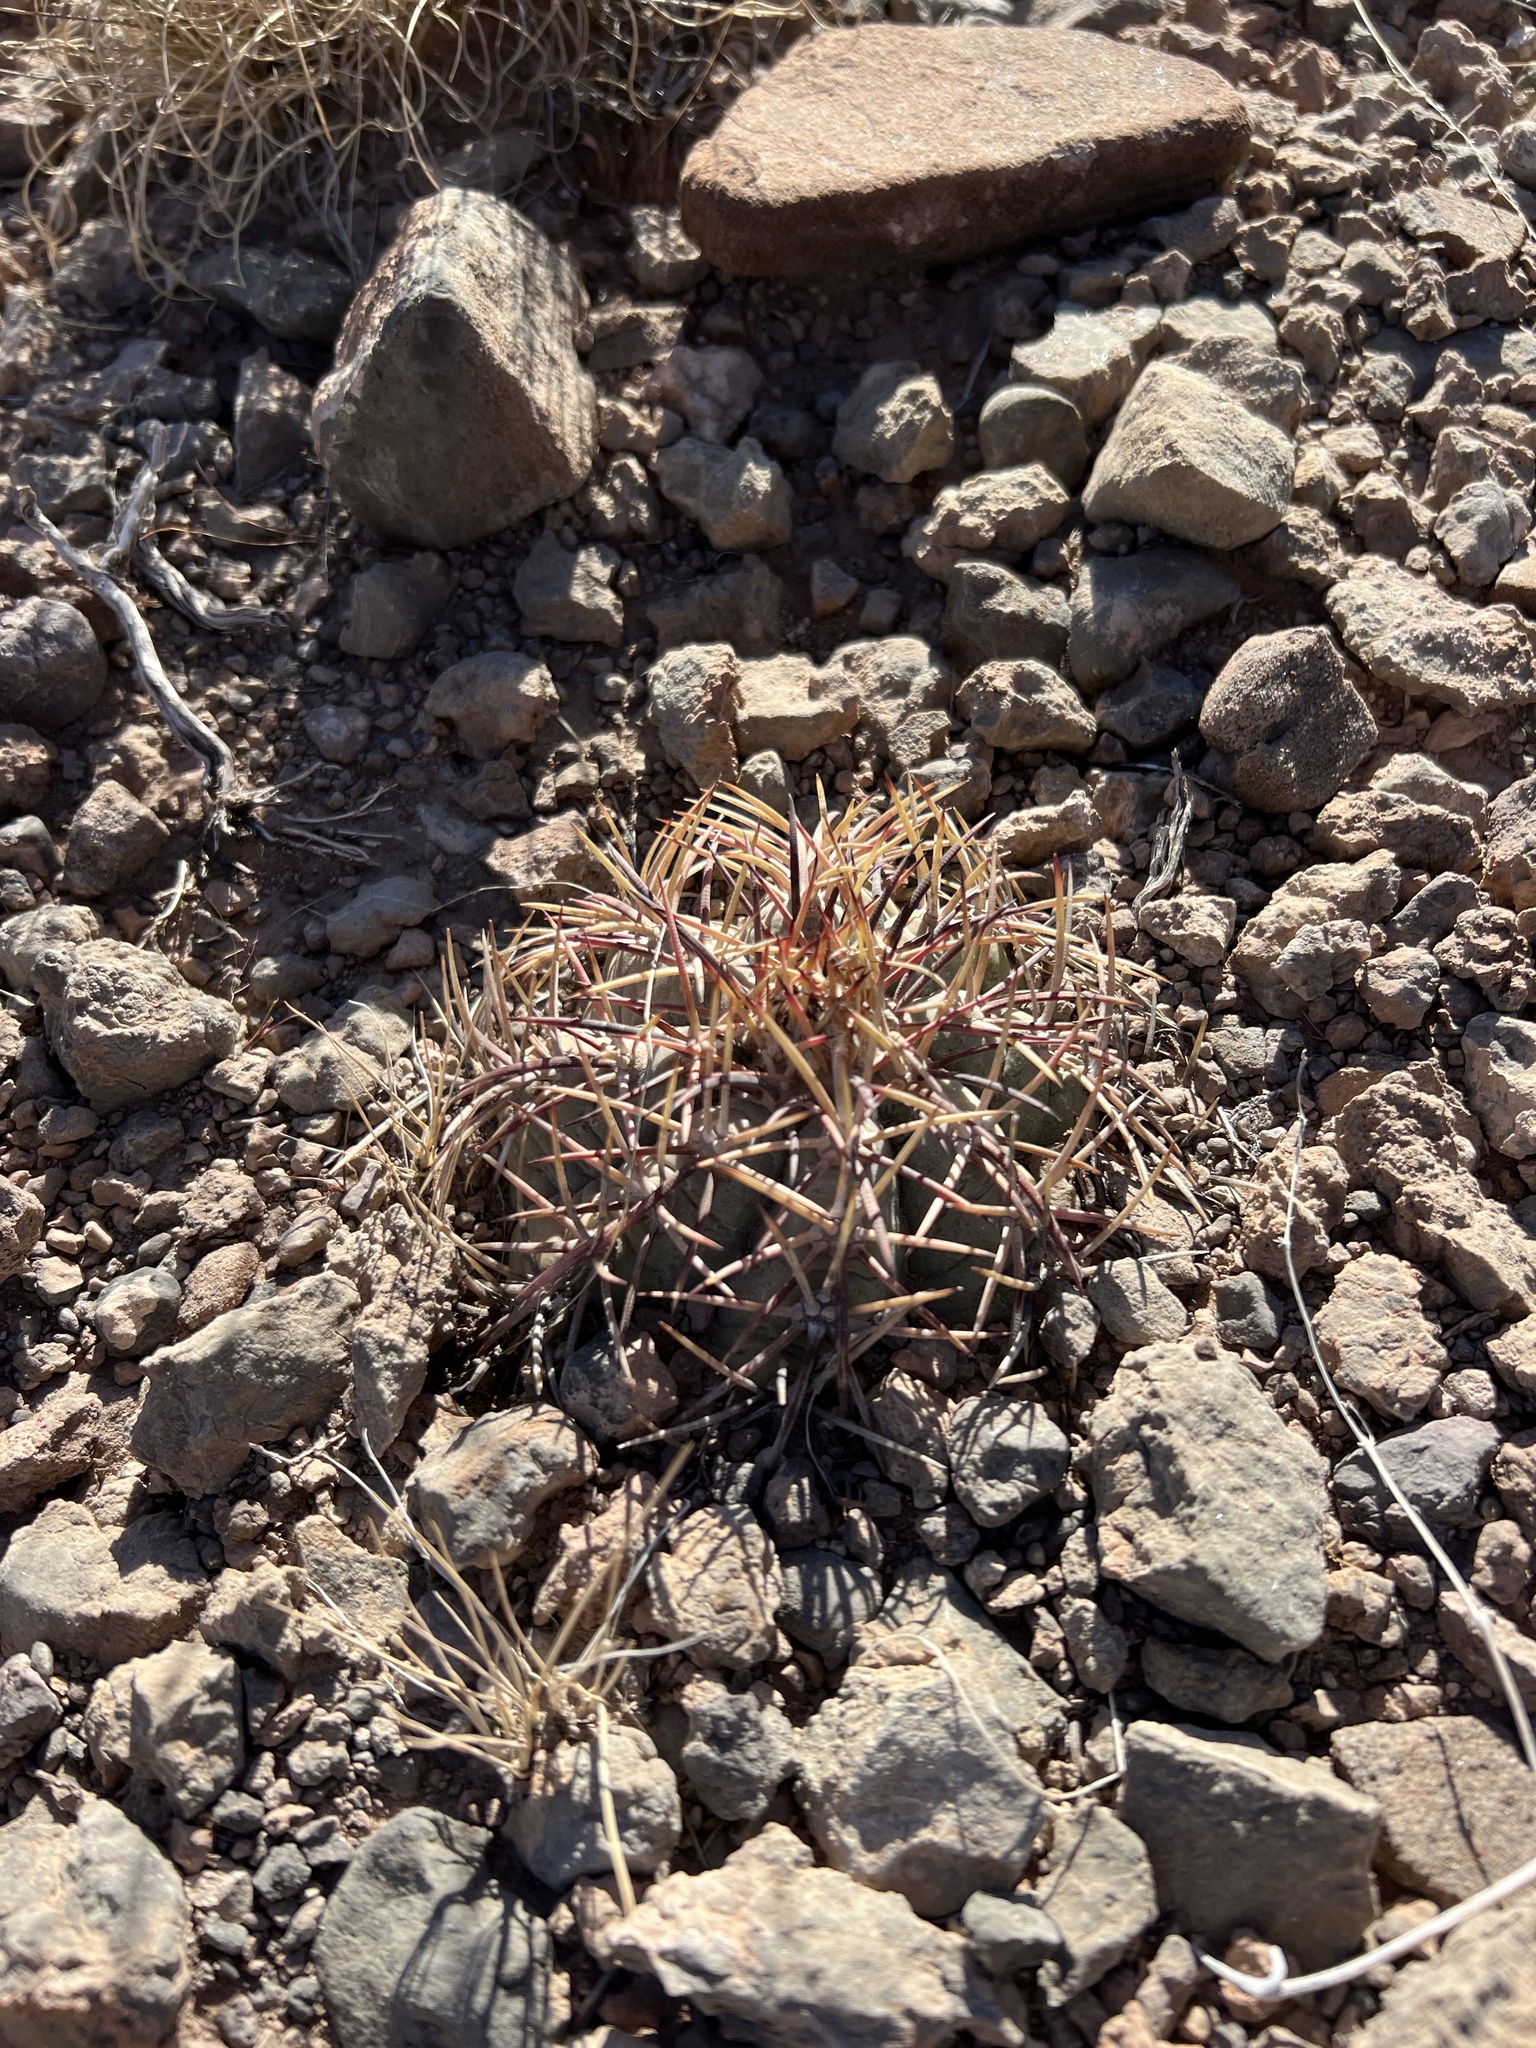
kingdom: Plantae
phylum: Tracheophyta
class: Magnoliopsida
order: Caryophyllales
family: Cactaceae
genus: Echinocactus
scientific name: Echinocactus horizonthalonius
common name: Devilshead
